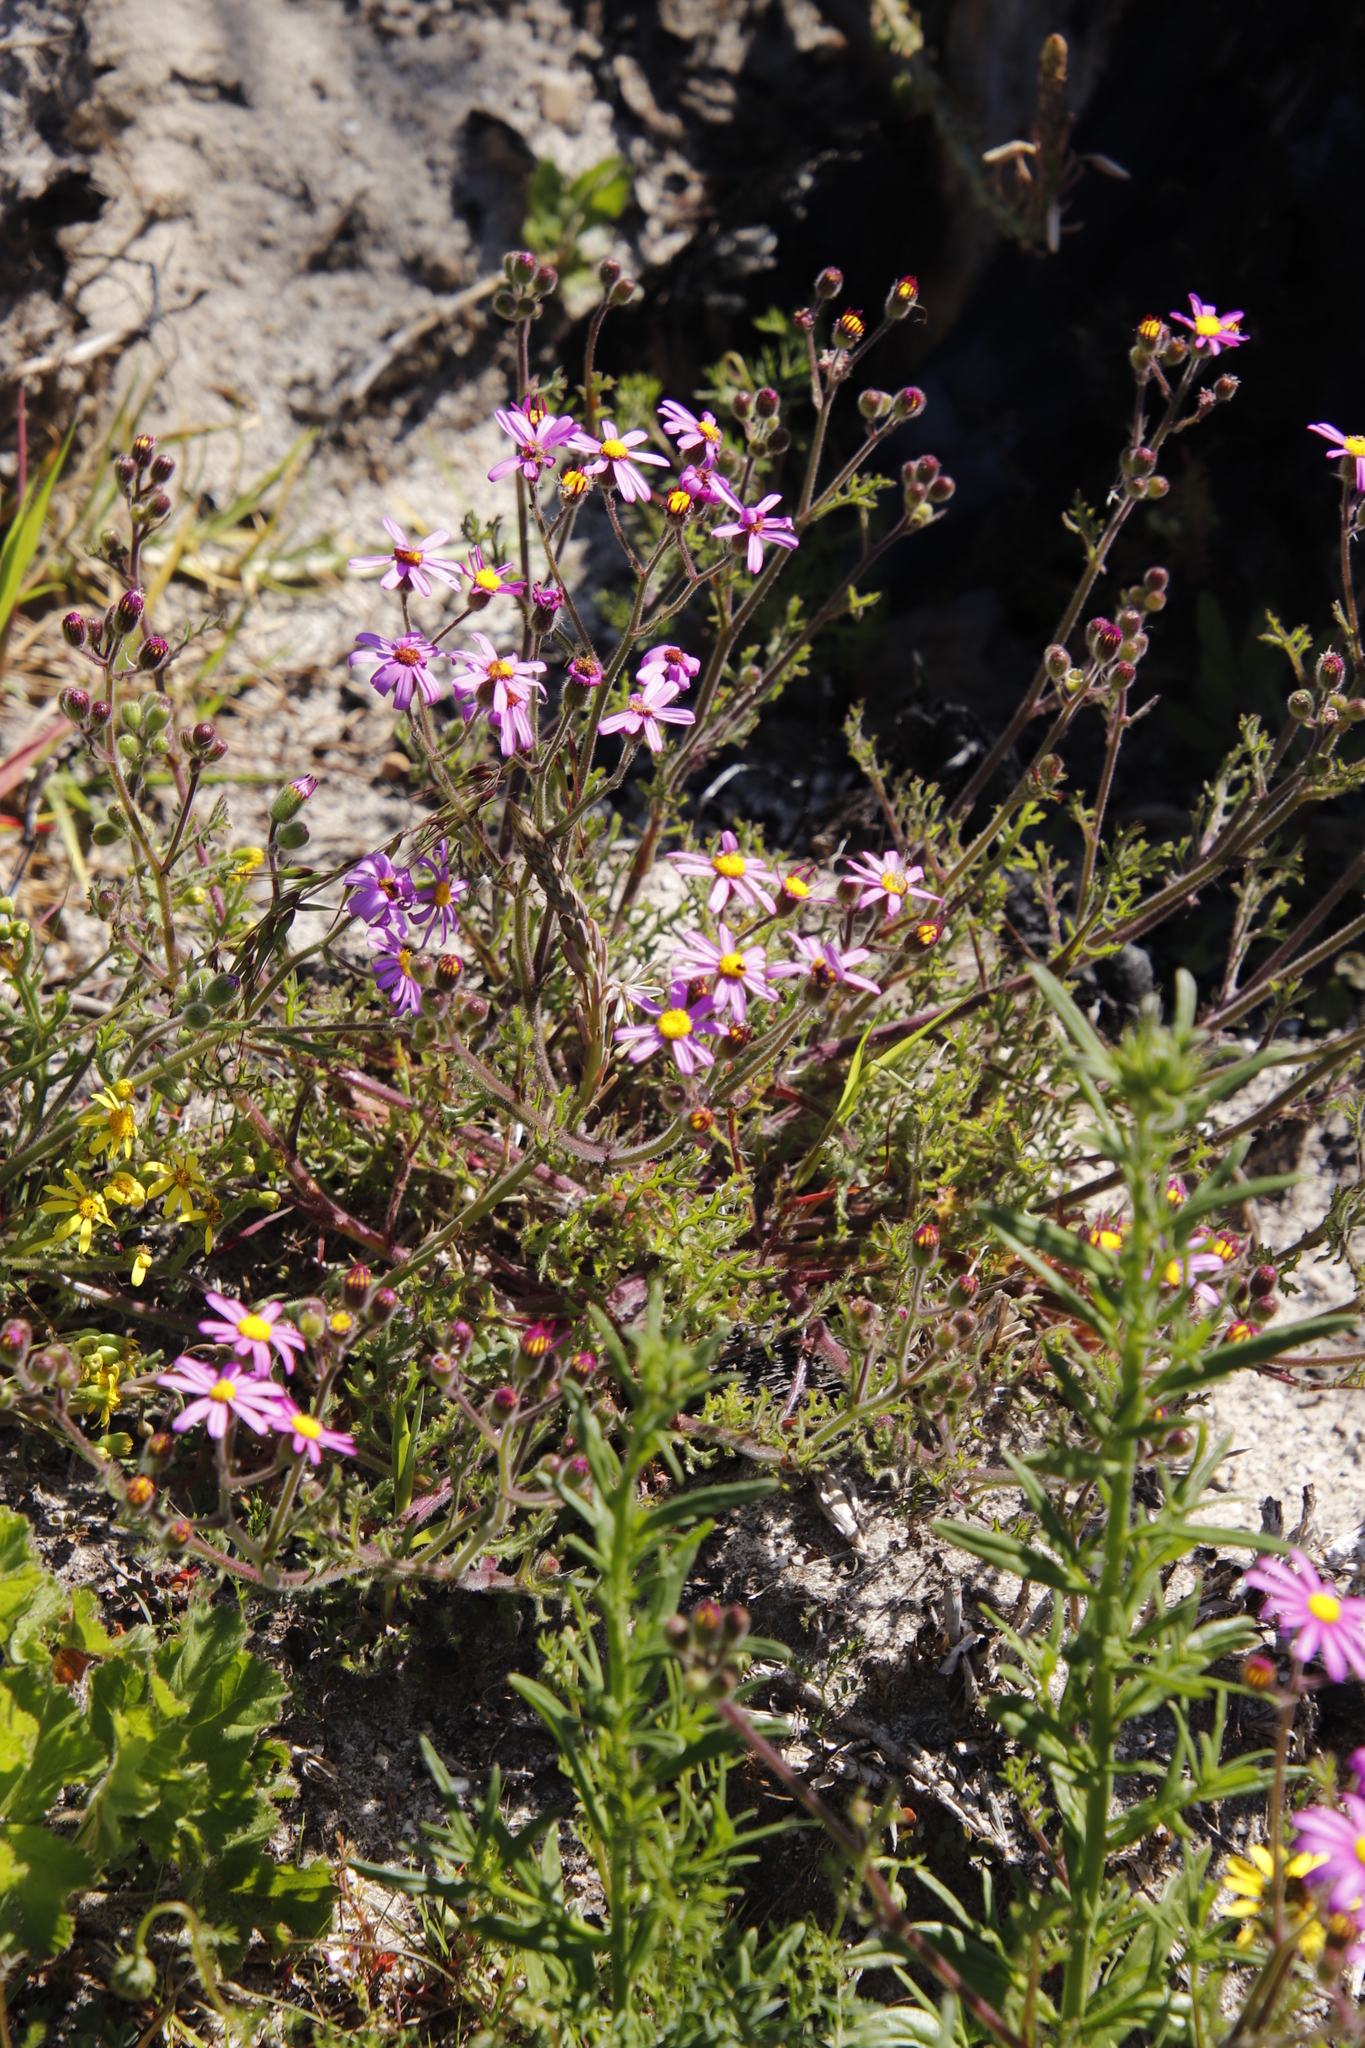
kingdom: Plantae
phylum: Tracheophyta
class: Magnoliopsida
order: Asterales
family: Asteraceae
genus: Senecio
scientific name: Senecio arenarius
